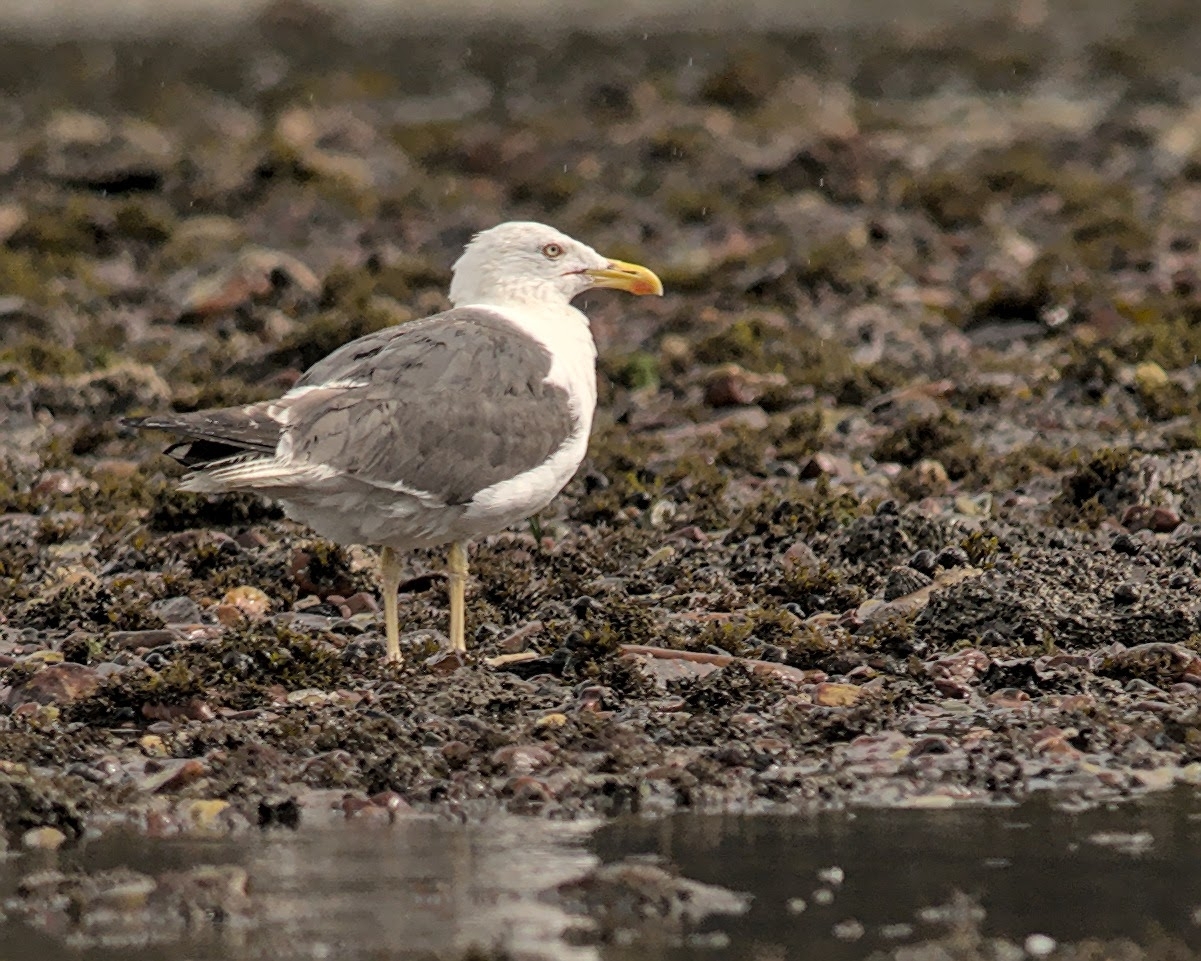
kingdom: Animalia
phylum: Chordata
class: Aves
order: Charadriiformes
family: Laridae
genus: Larus
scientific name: Larus fuscus
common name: Lesser black-backed gull
